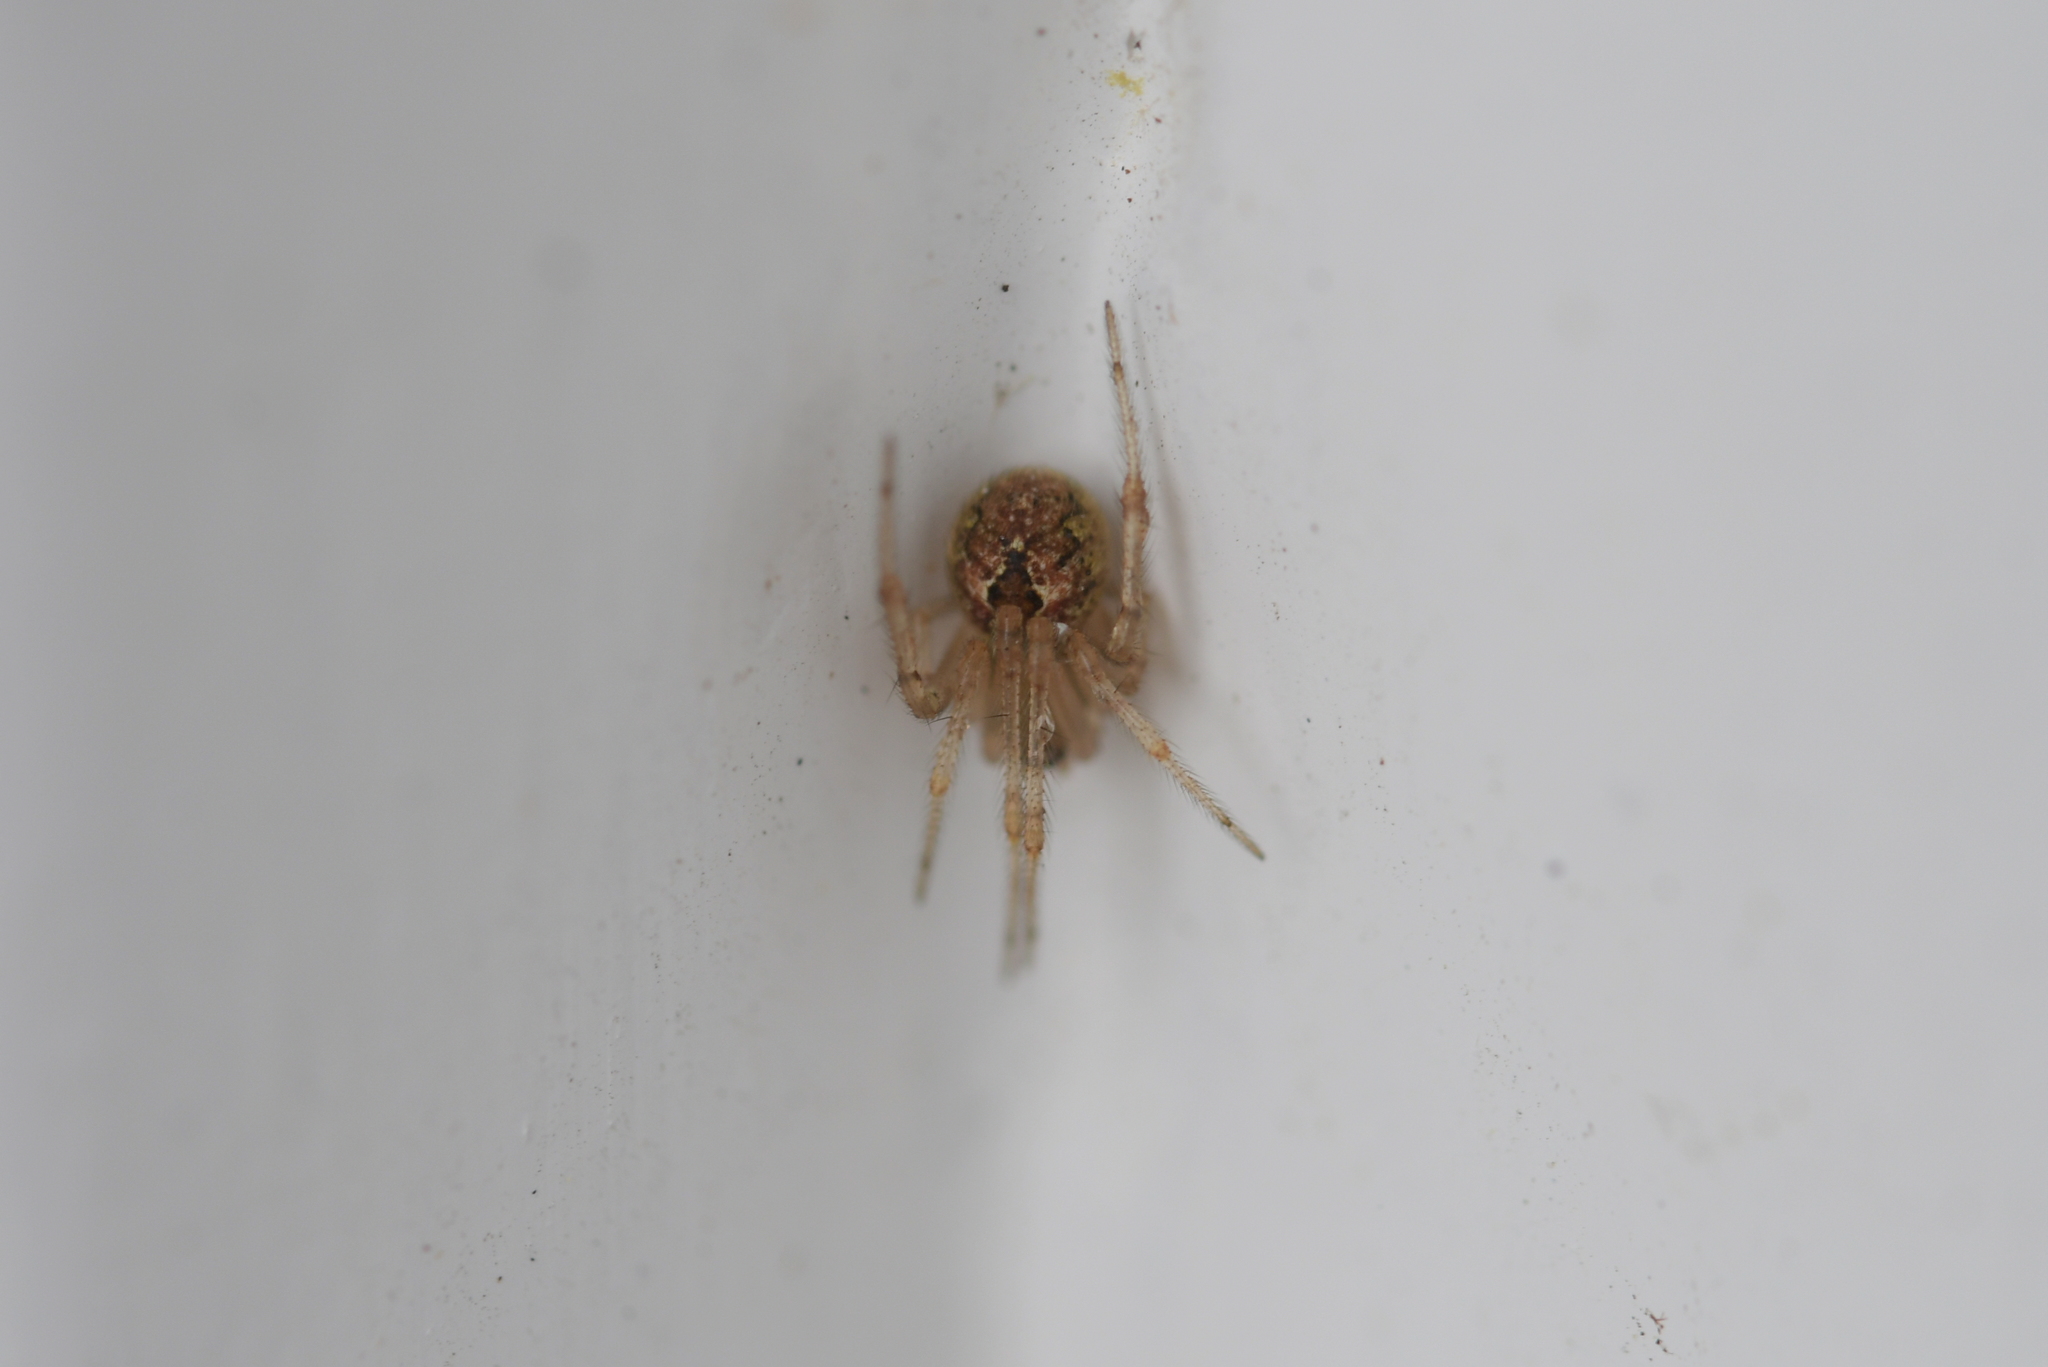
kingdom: Animalia
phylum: Arthropoda
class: Arachnida
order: Araneae
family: Theridiidae
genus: Cryptachaea
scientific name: Cryptachaea veruculata
